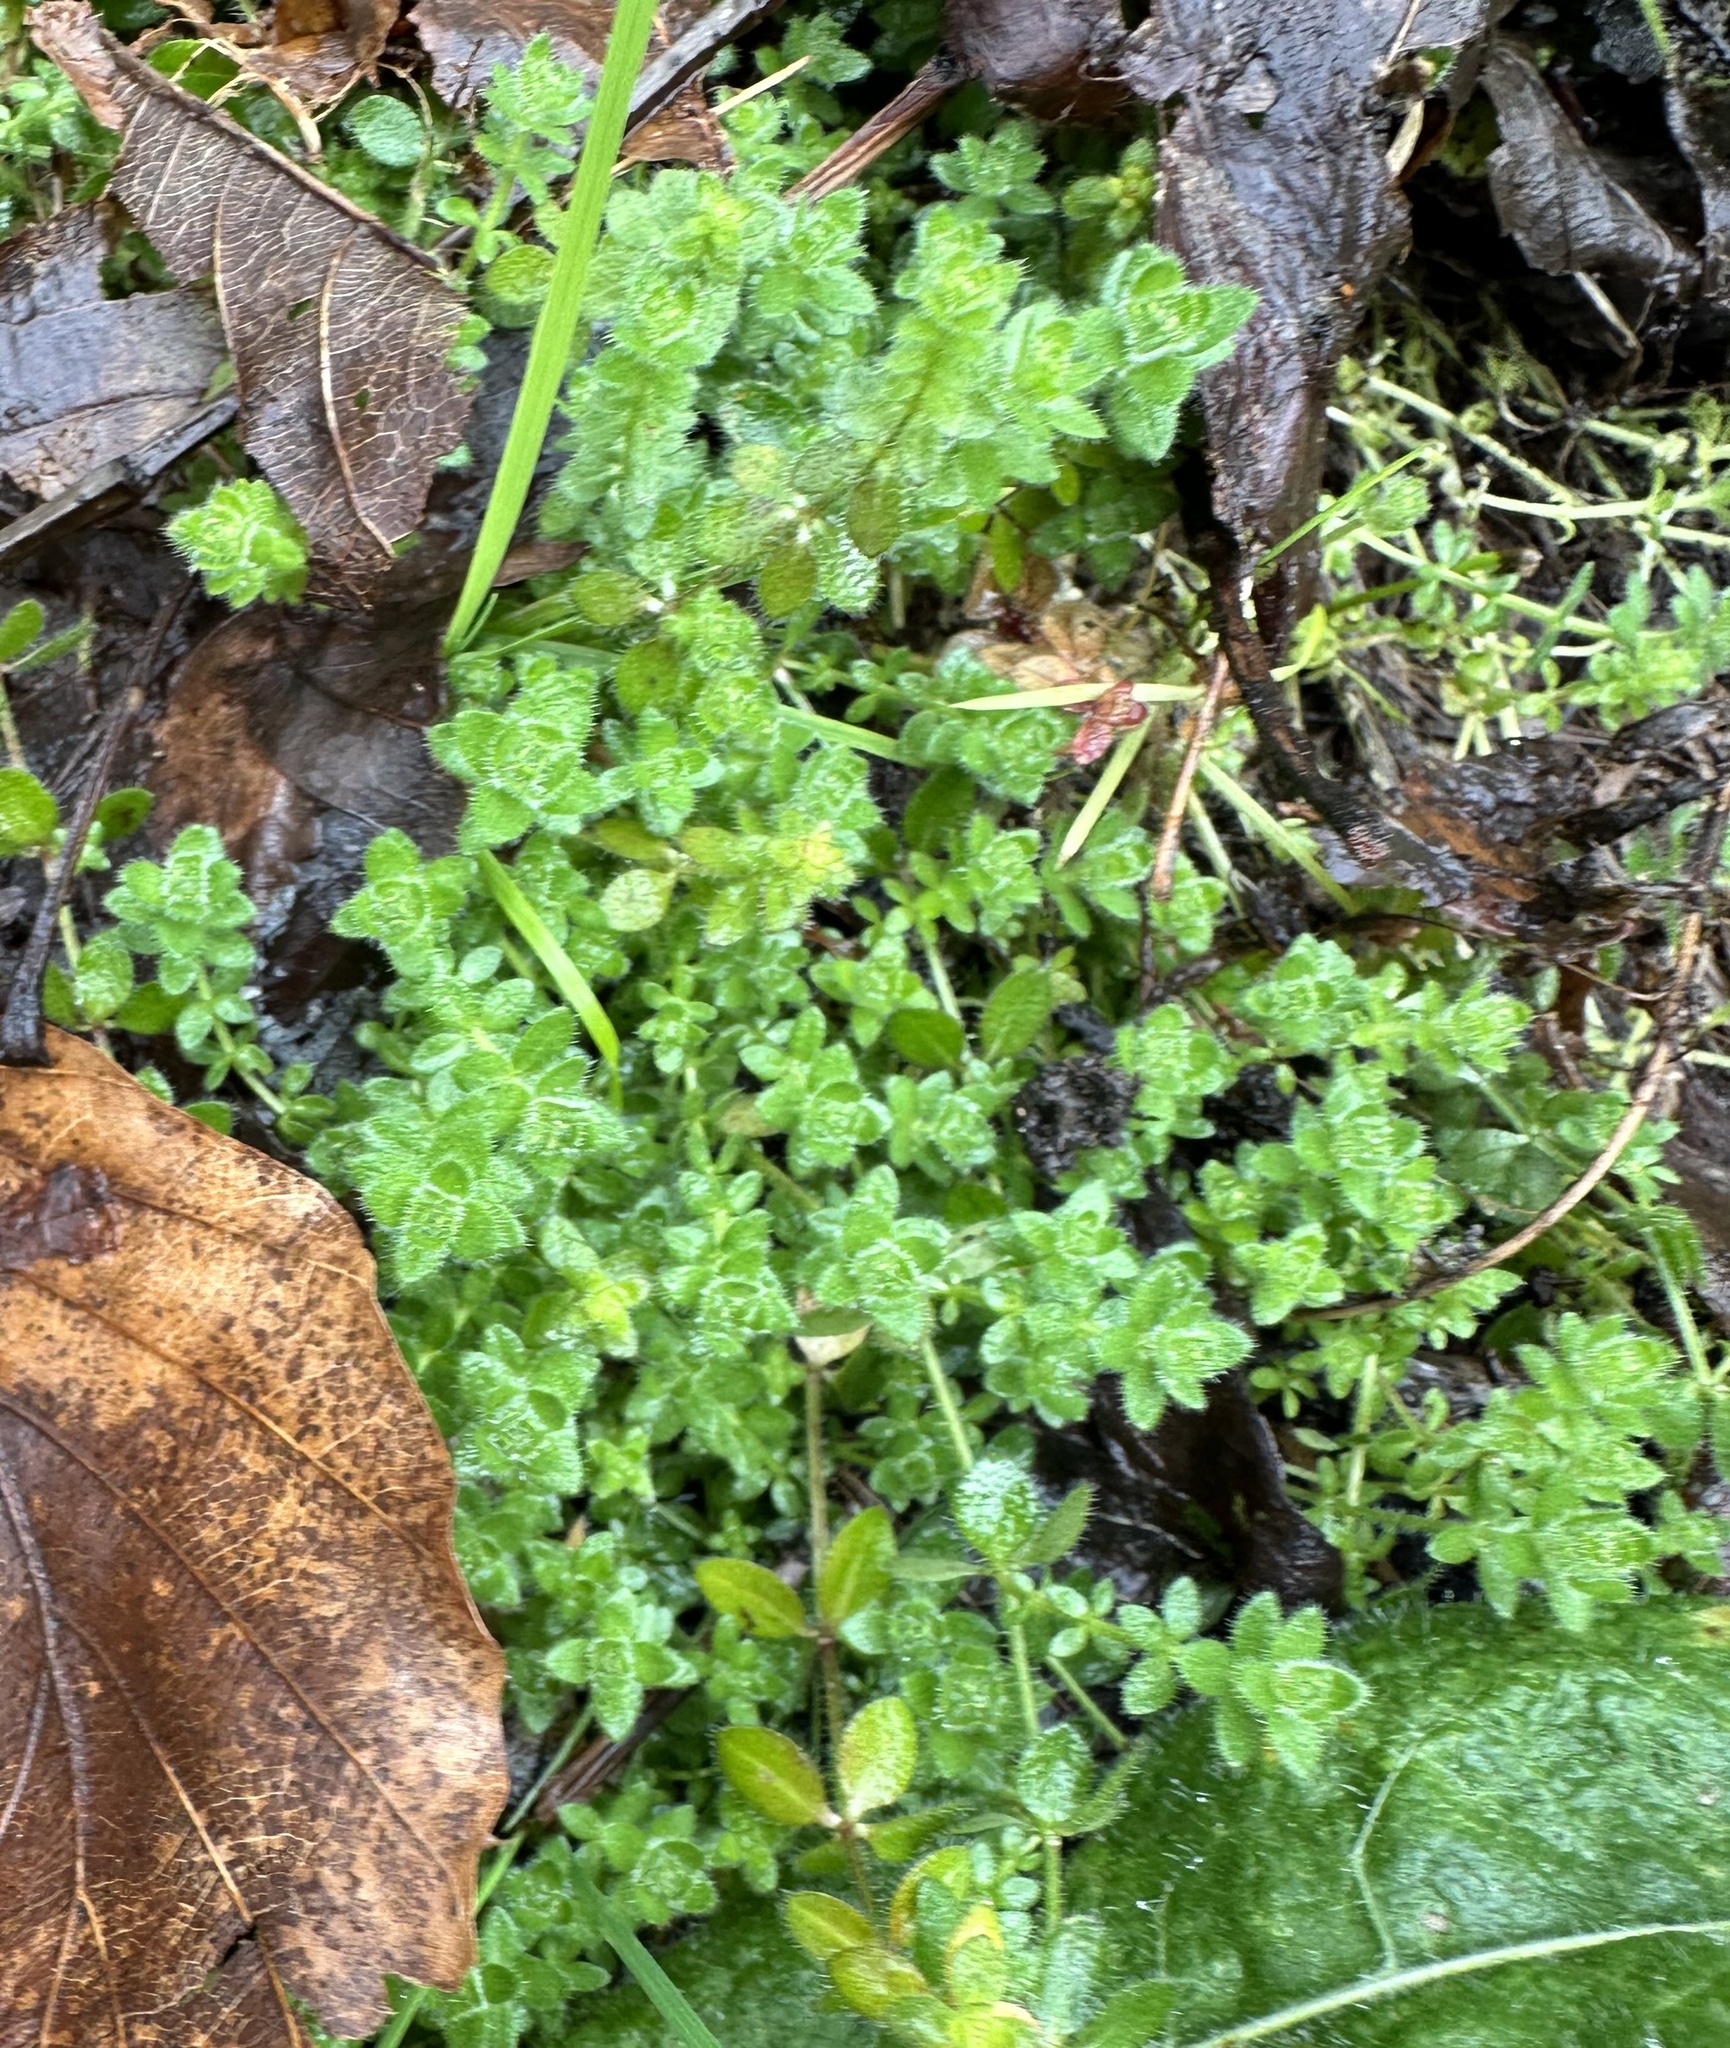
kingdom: Plantae
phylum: Tracheophyta
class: Magnoliopsida
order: Gentianales
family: Rubiaceae
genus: Cruciata
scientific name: Cruciata laevipes
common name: Crosswort
